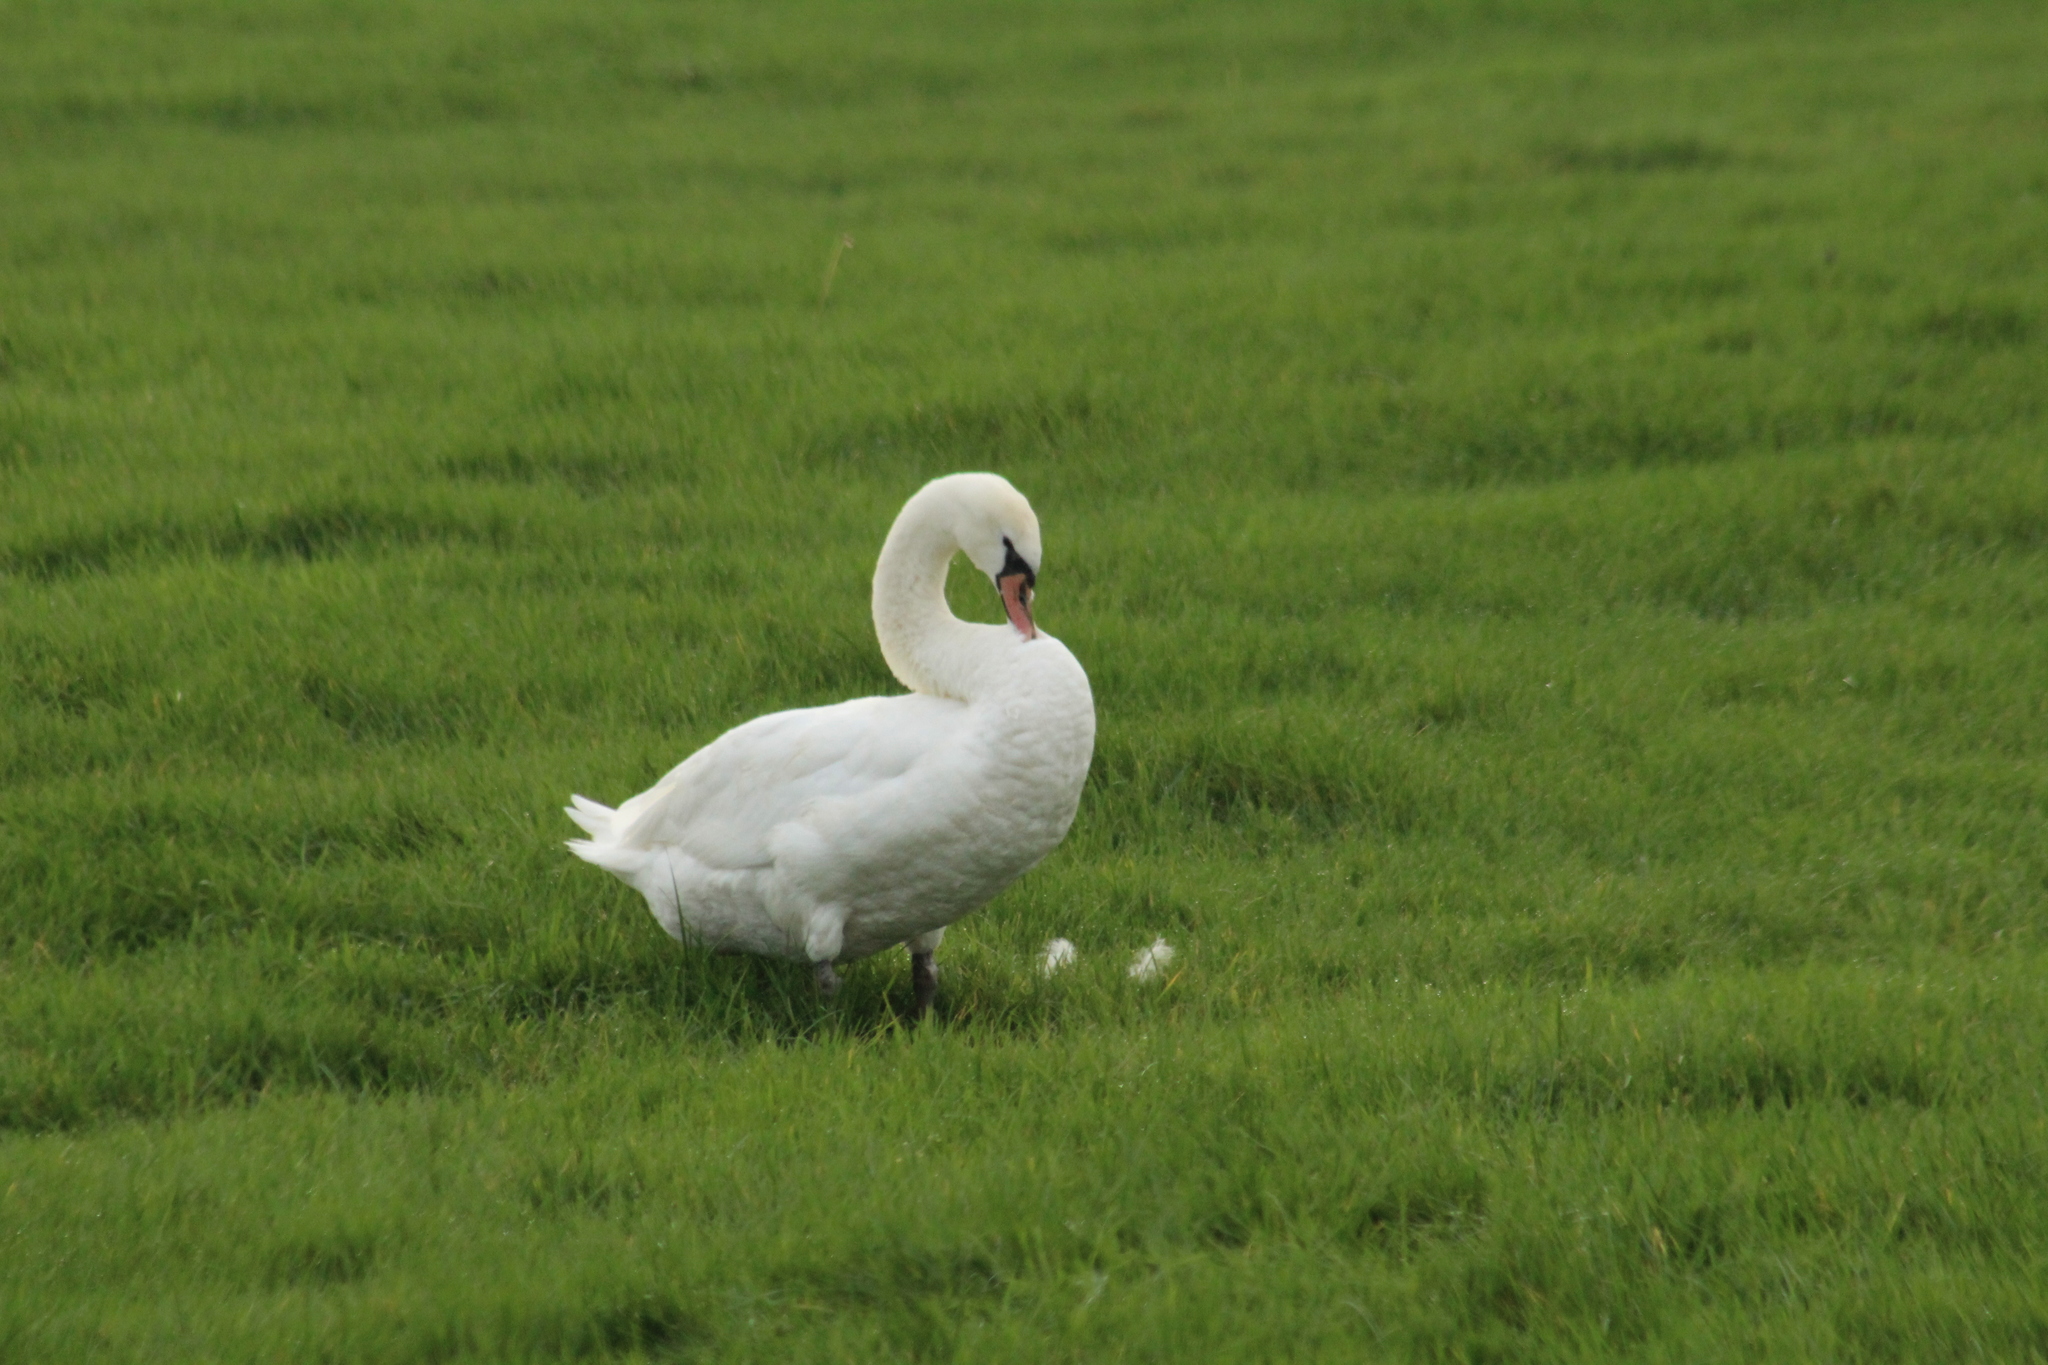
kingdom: Animalia
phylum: Chordata
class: Aves
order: Anseriformes
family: Anatidae
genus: Cygnus
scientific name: Cygnus olor
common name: Mute swan
